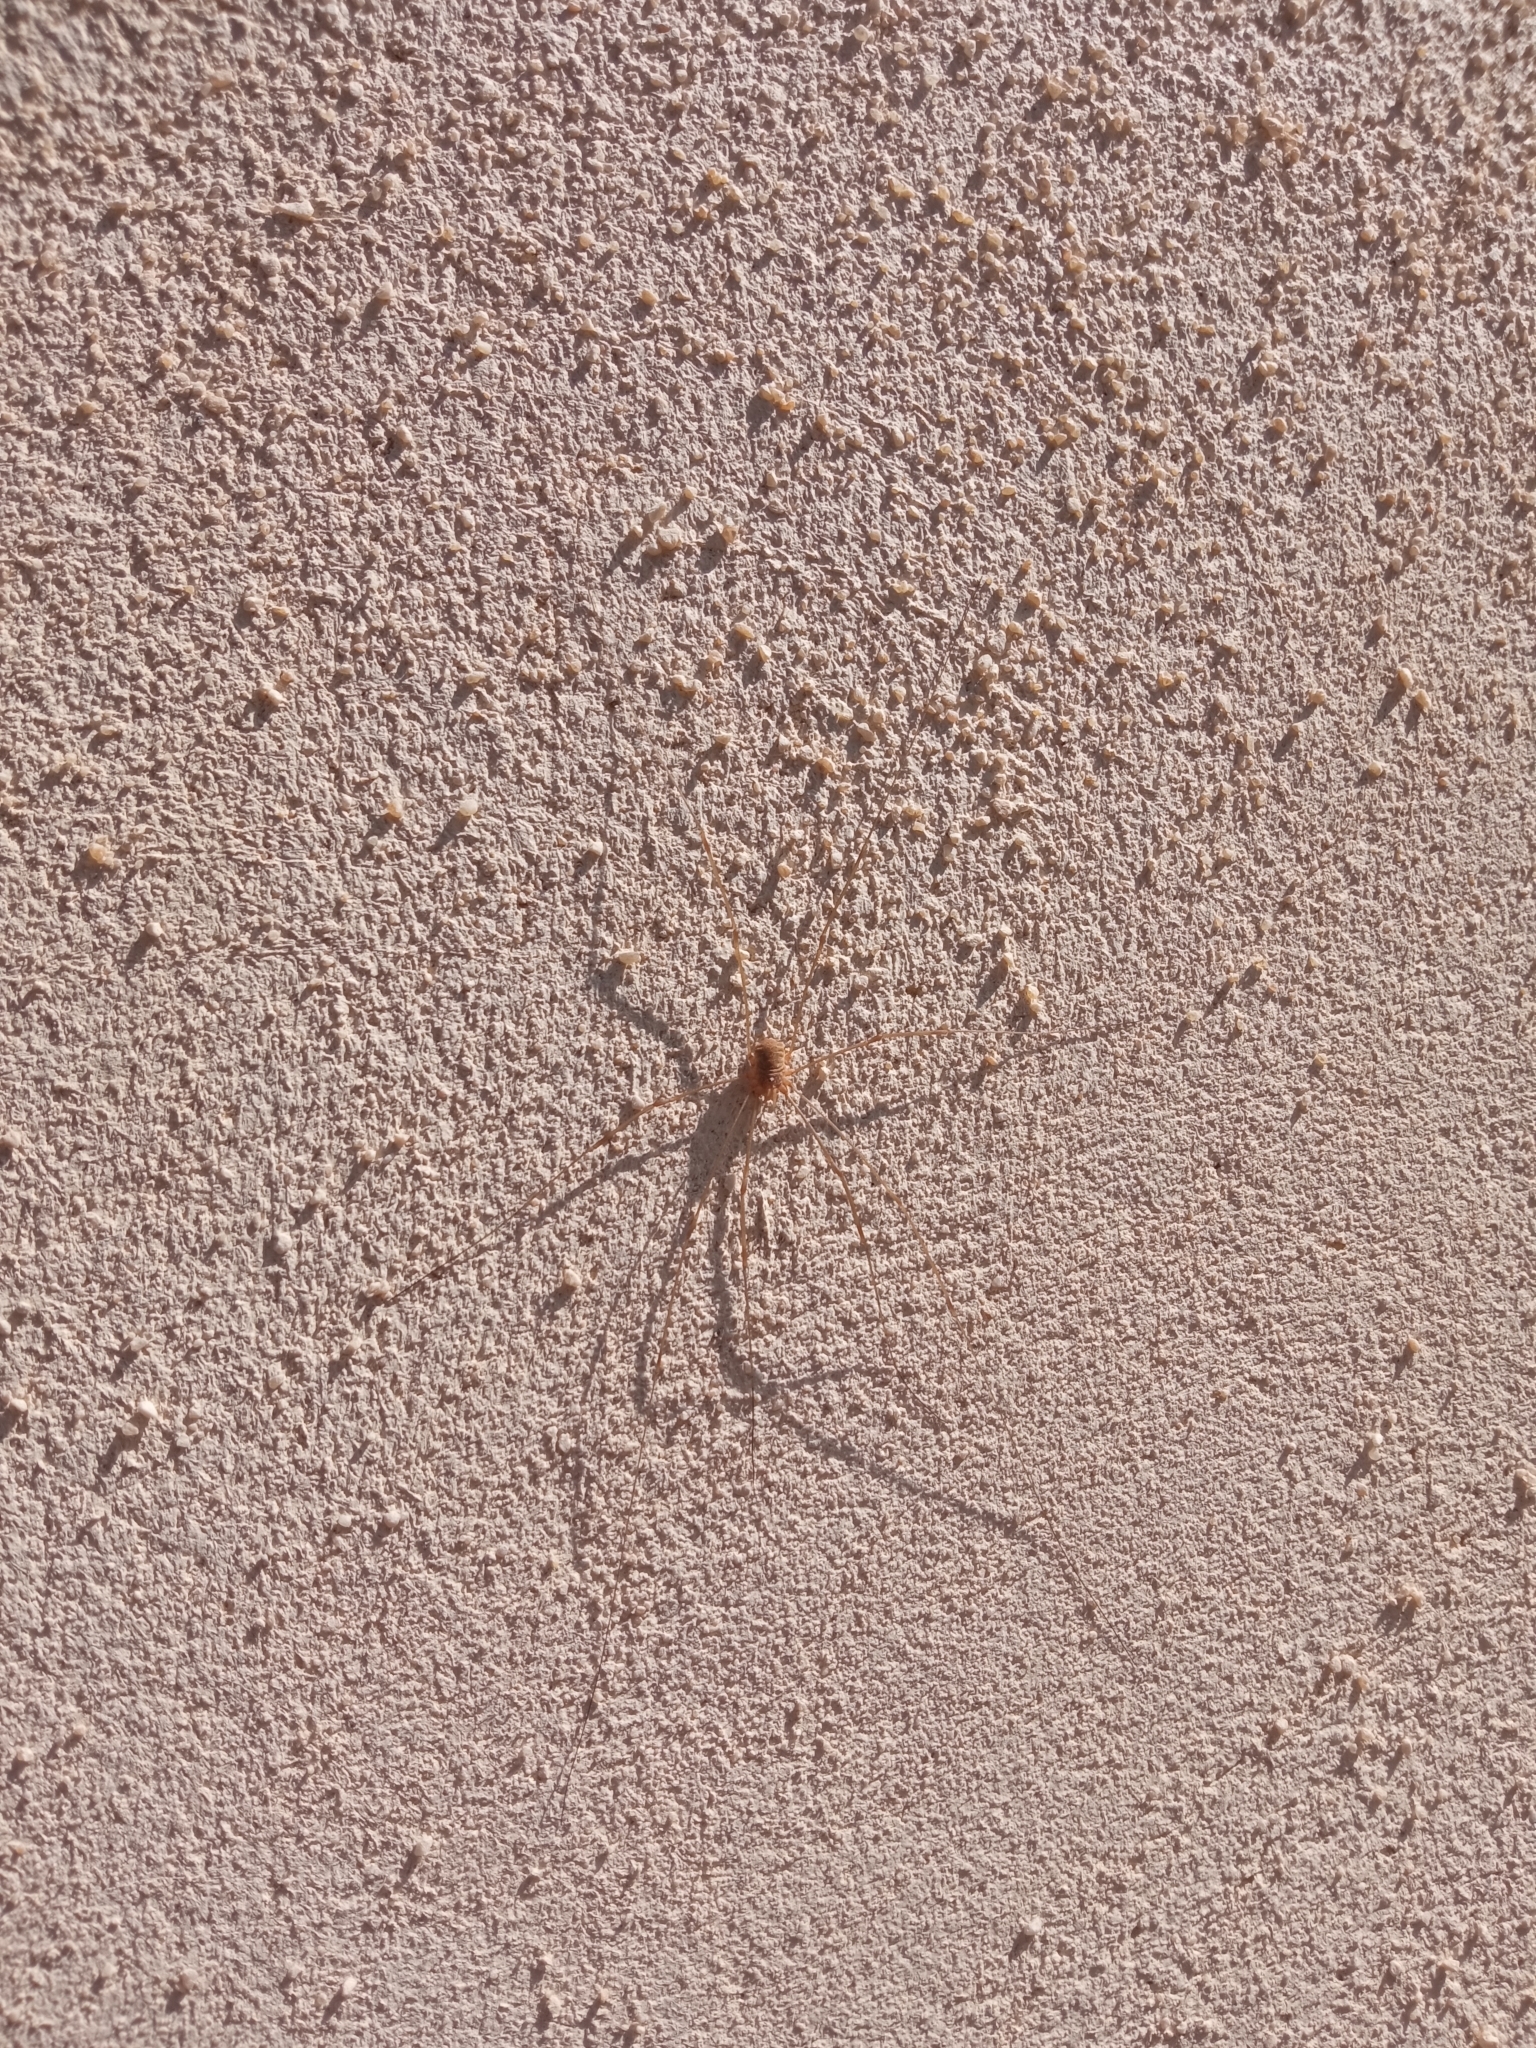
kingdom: Animalia
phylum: Arthropoda
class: Arachnida
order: Opiliones
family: Phalangiidae
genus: Opilio
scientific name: Opilio canestrinii
